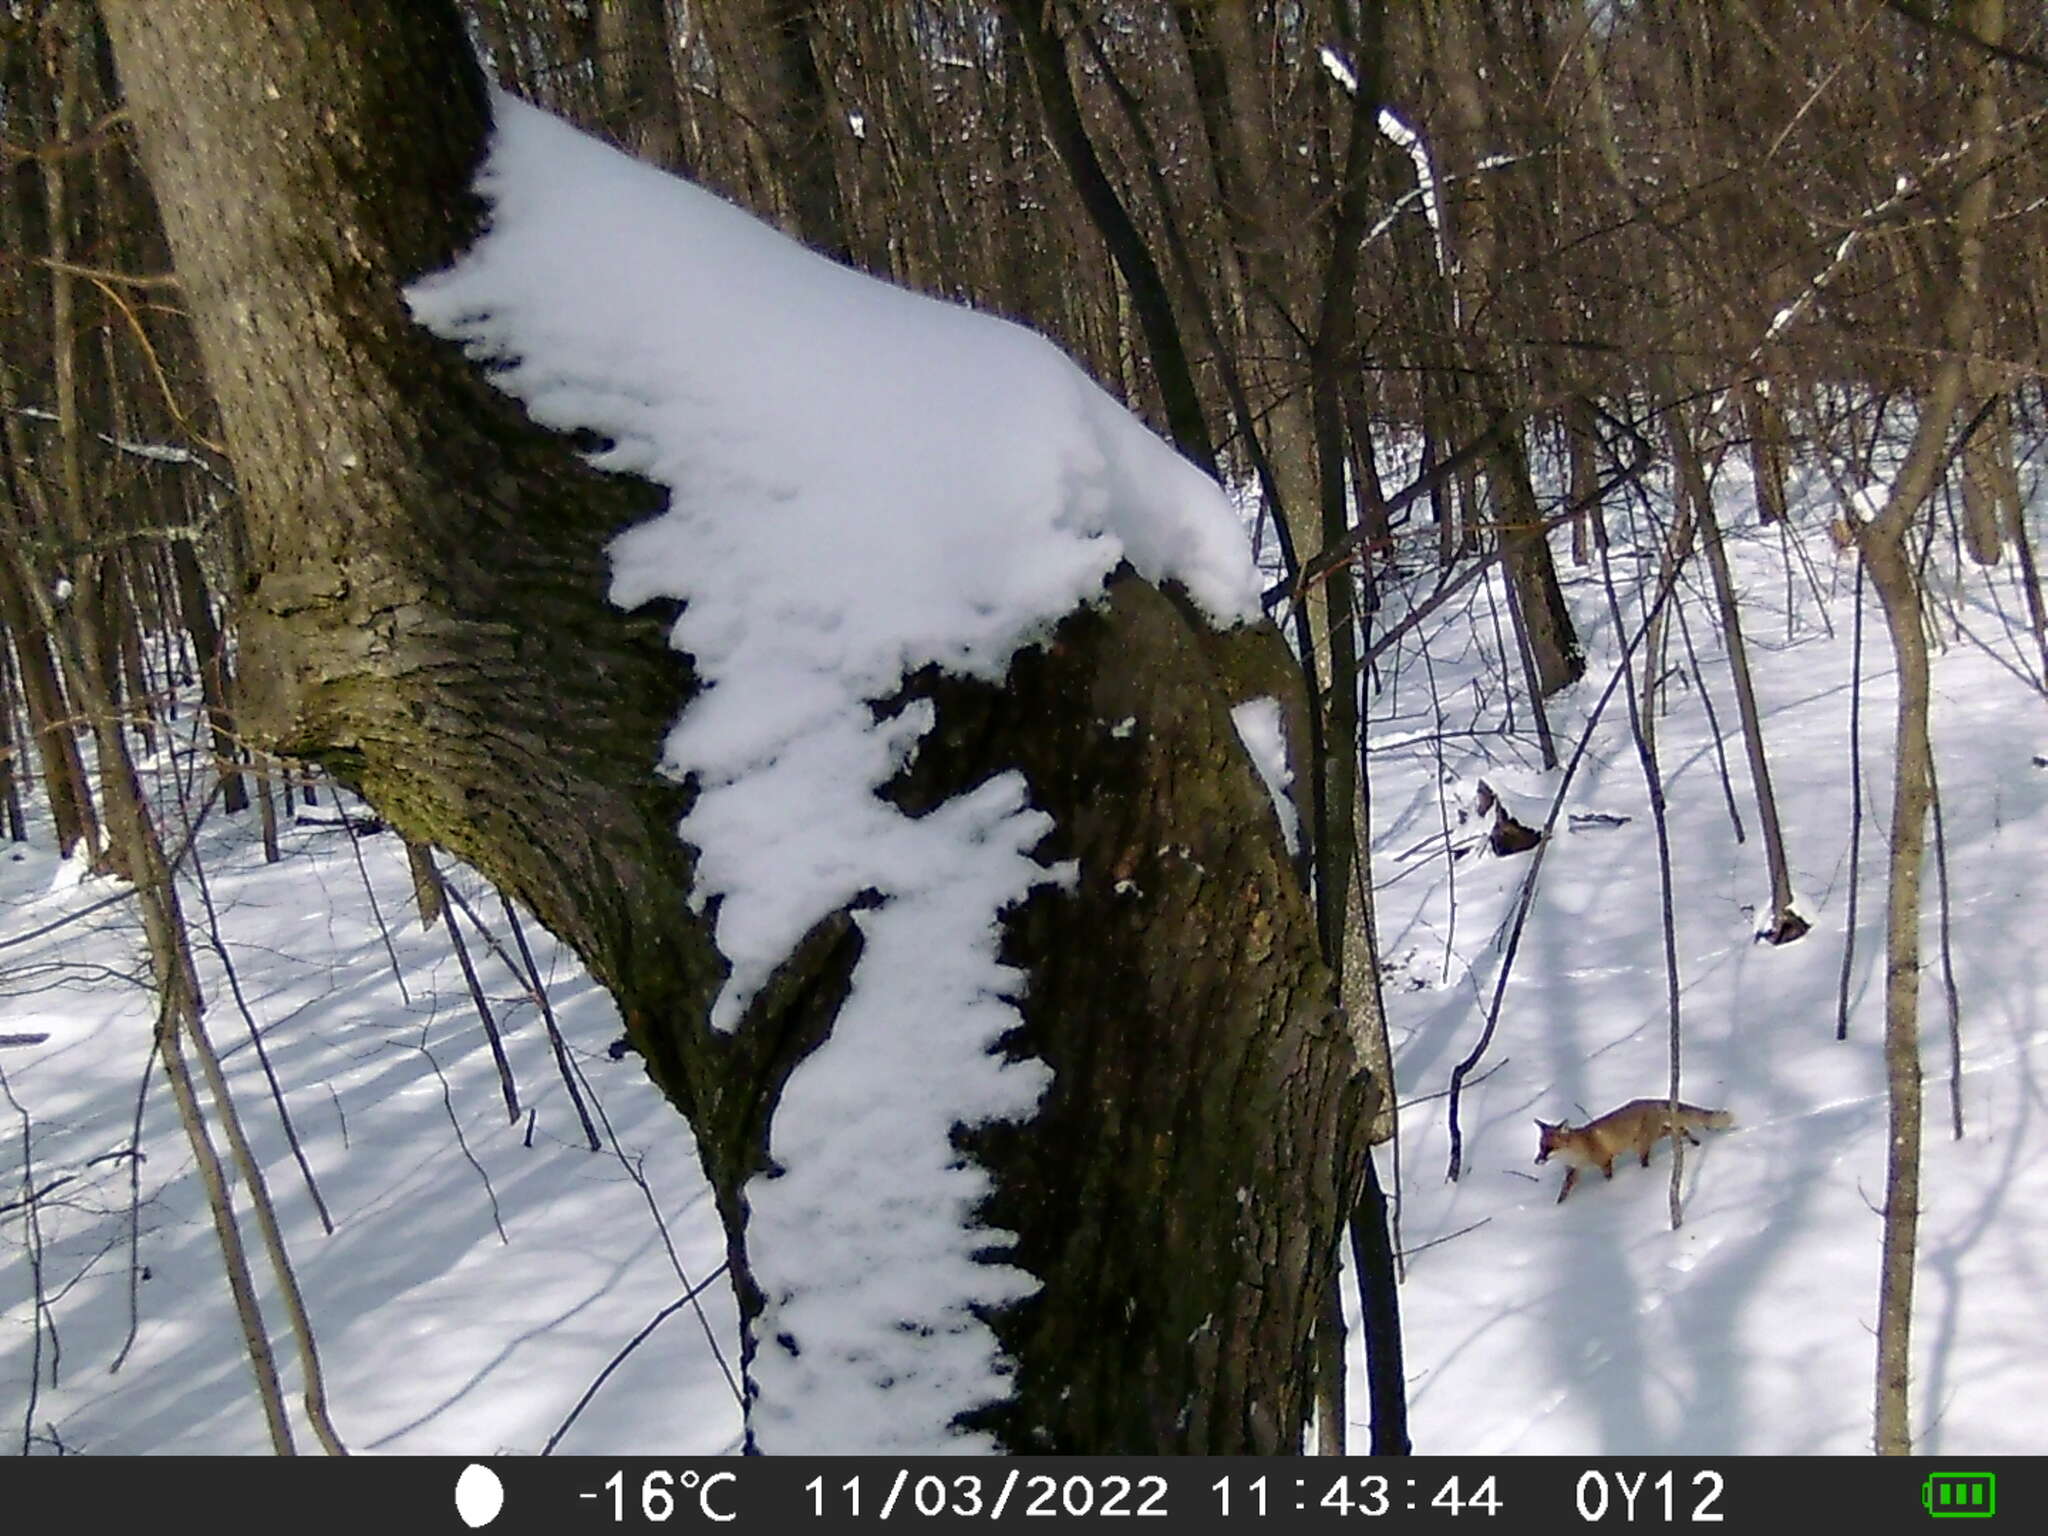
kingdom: Animalia
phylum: Chordata
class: Mammalia
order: Carnivora
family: Canidae
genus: Vulpes
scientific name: Vulpes vulpes
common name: Red fox
